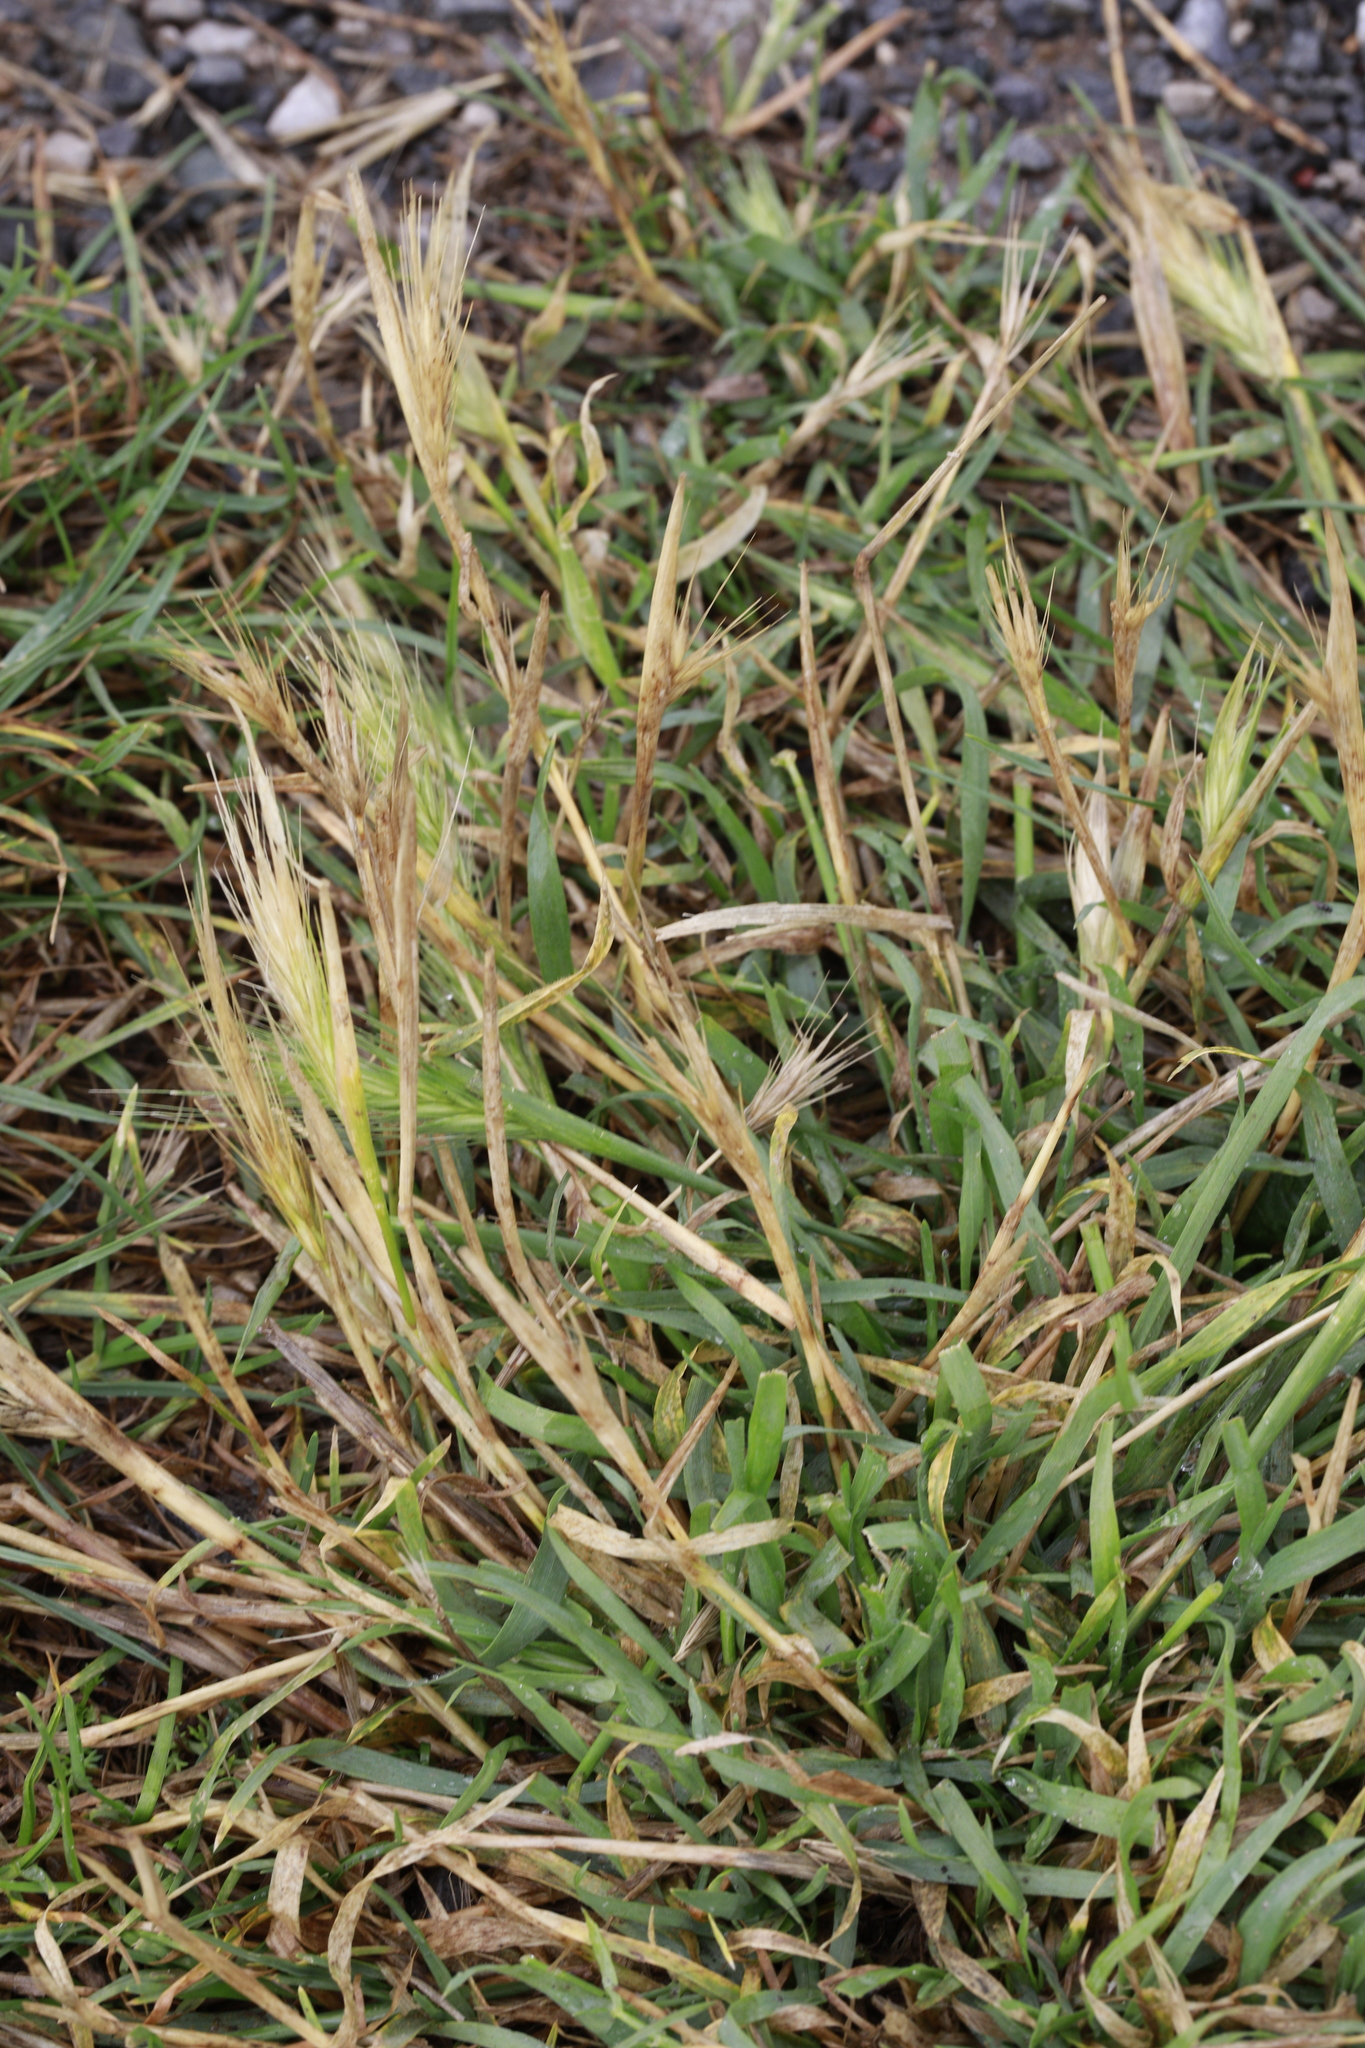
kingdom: Plantae
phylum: Tracheophyta
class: Liliopsida
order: Poales
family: Poaceae
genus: Hordeum
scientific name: Hordeum murinum
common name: Wall barley
